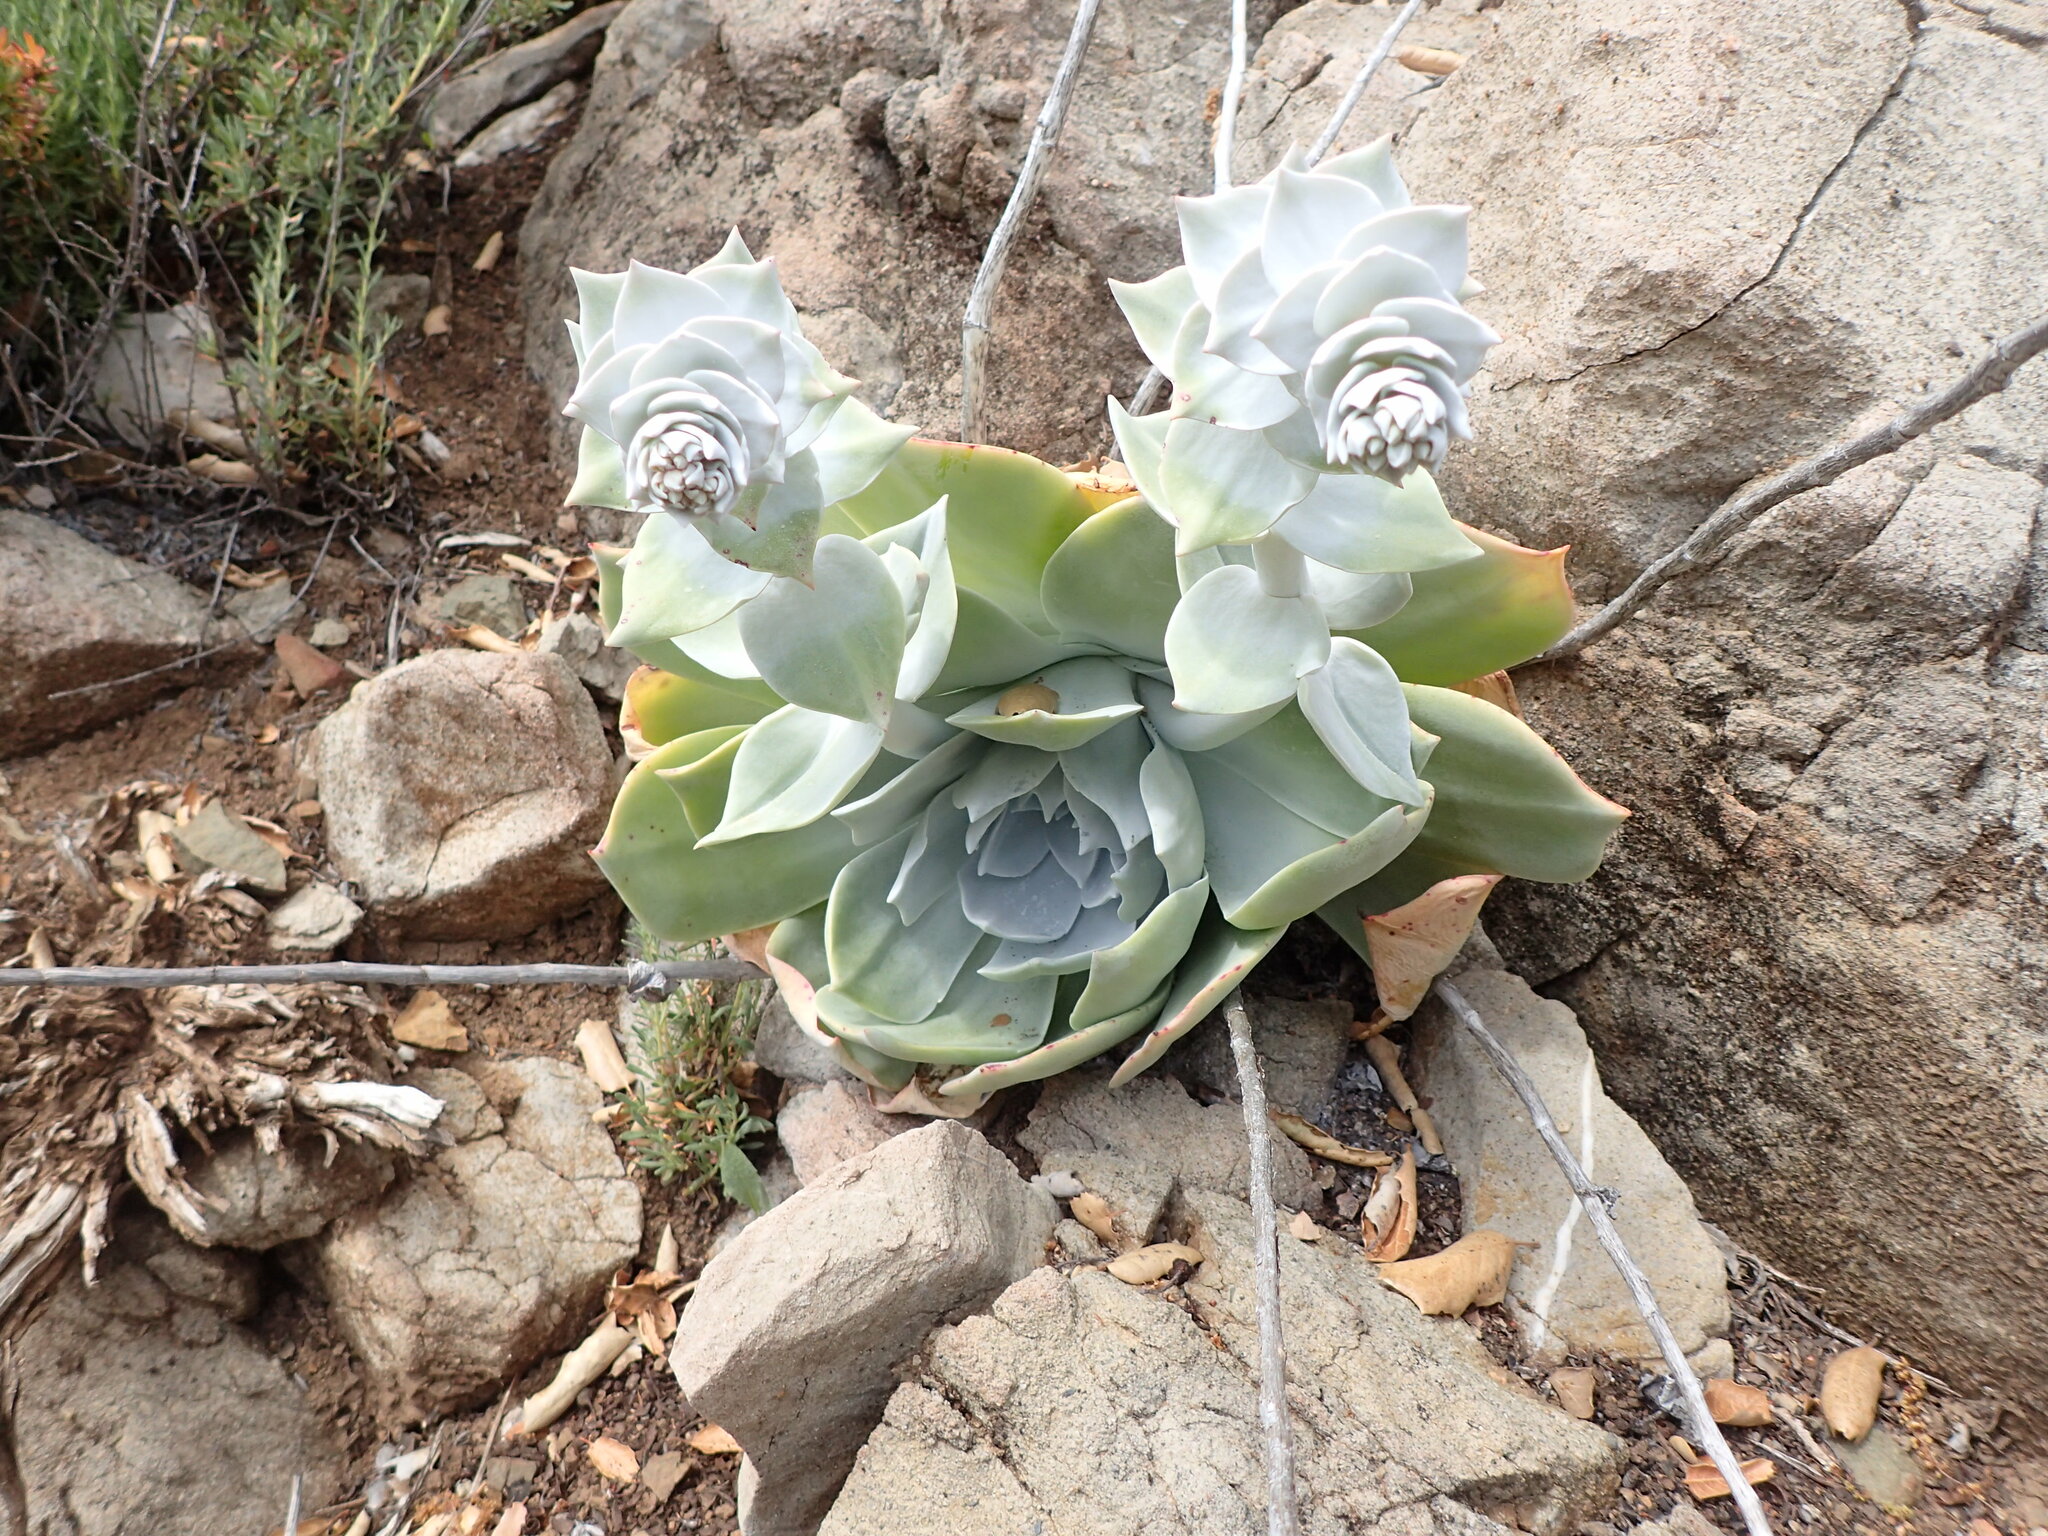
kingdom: Plantae
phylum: Tracheophyta
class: Magnoliopsida
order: Saxifragales
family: Crassulaceae
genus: Dudleya
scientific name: Dudleya pulverulenta
